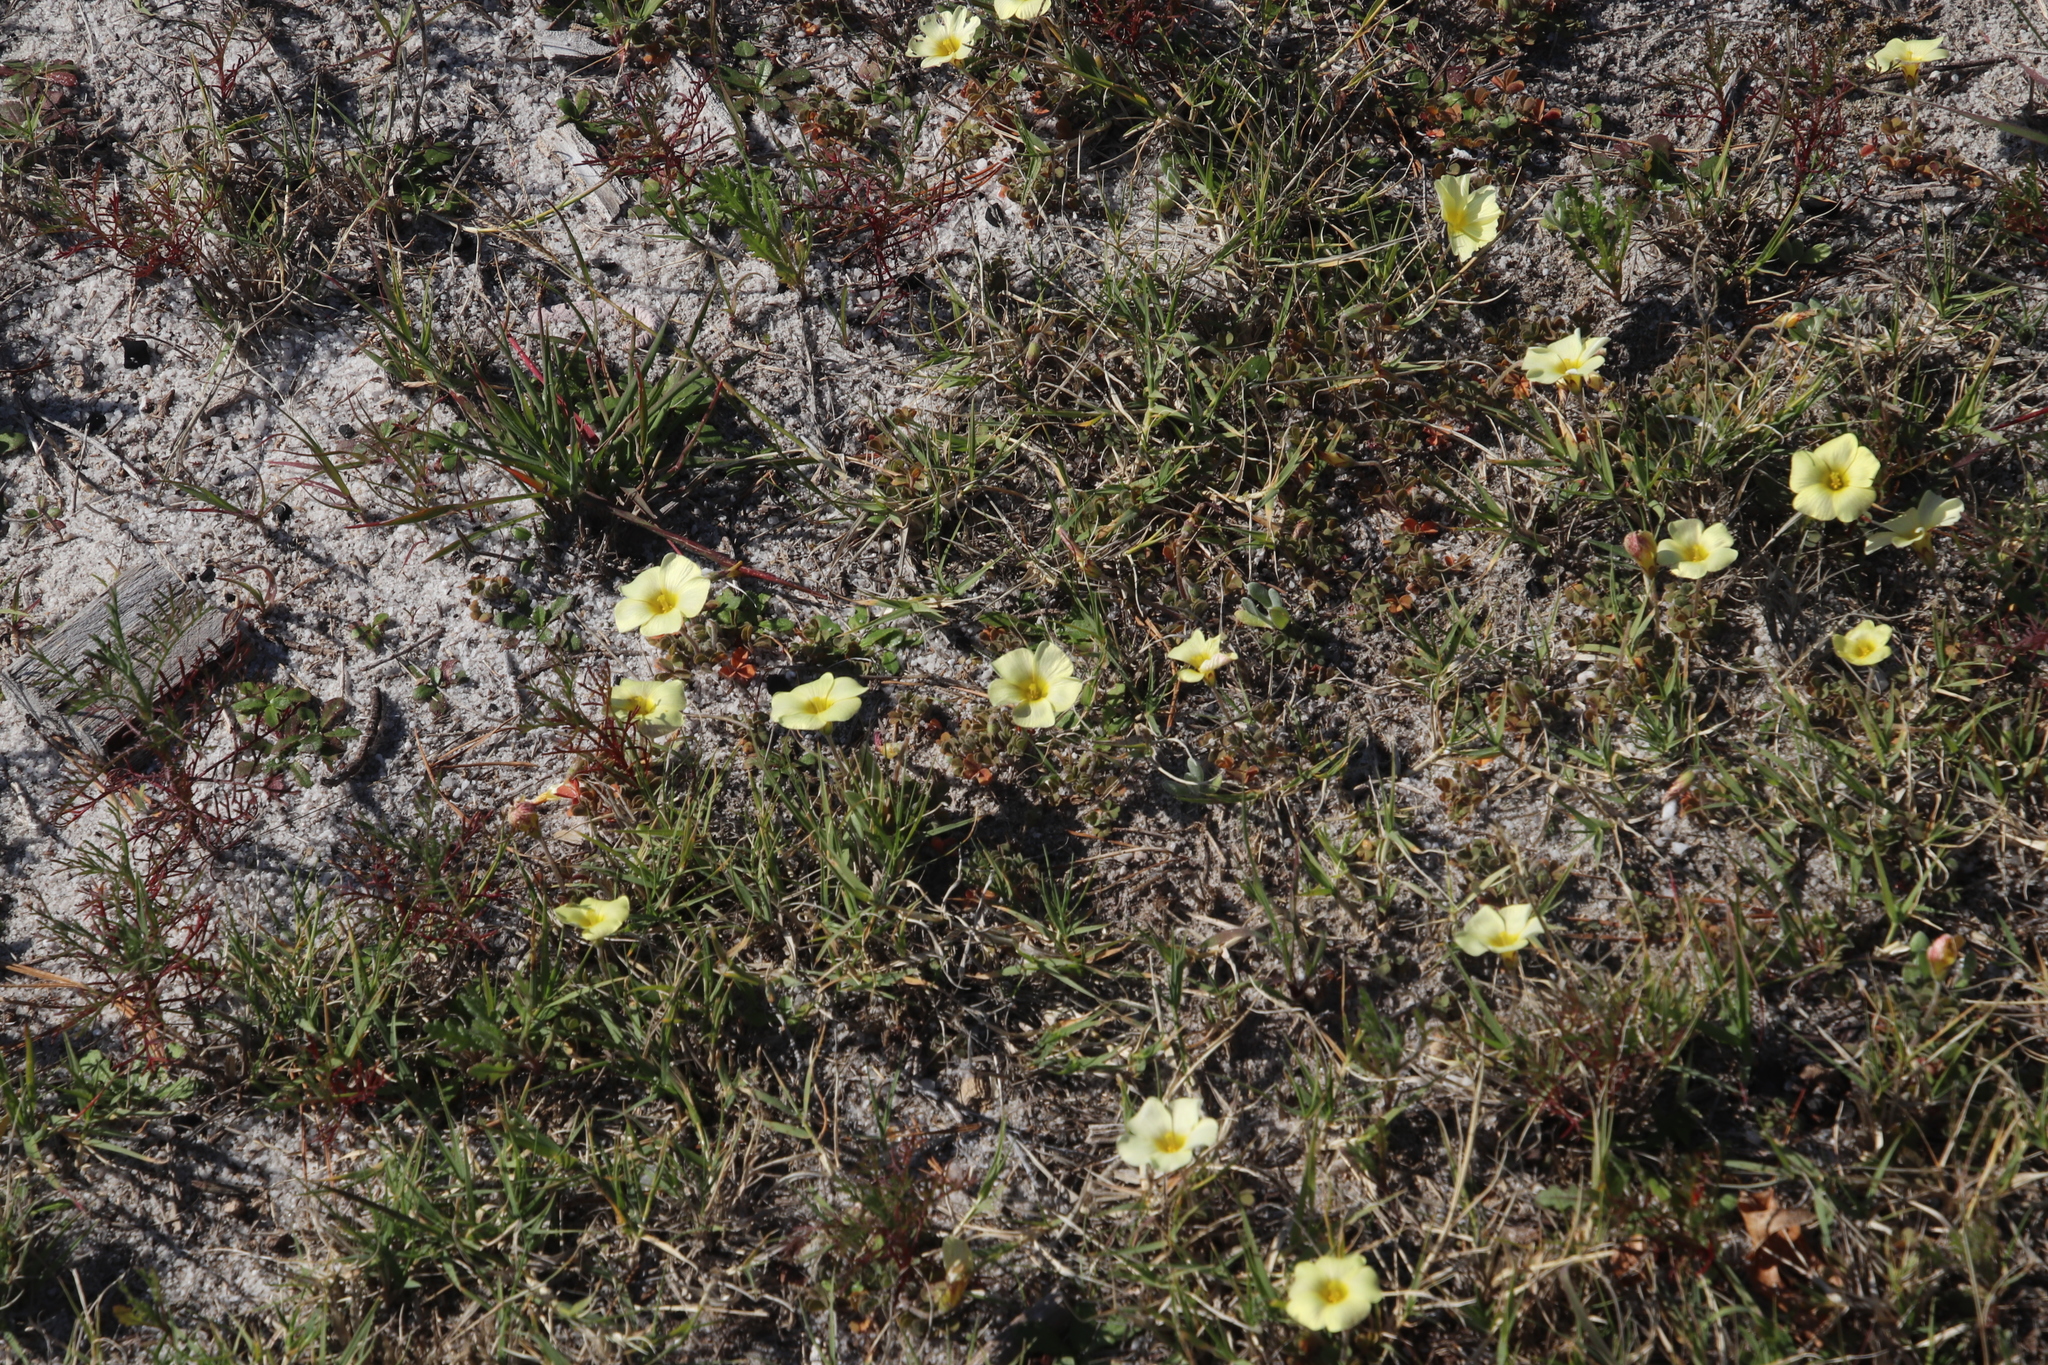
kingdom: Plantae
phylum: Tracheophyta
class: Magnoliopsida
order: Oxalidales
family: Oxalidaceae
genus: Oxalis
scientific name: Oxalis obtusa
